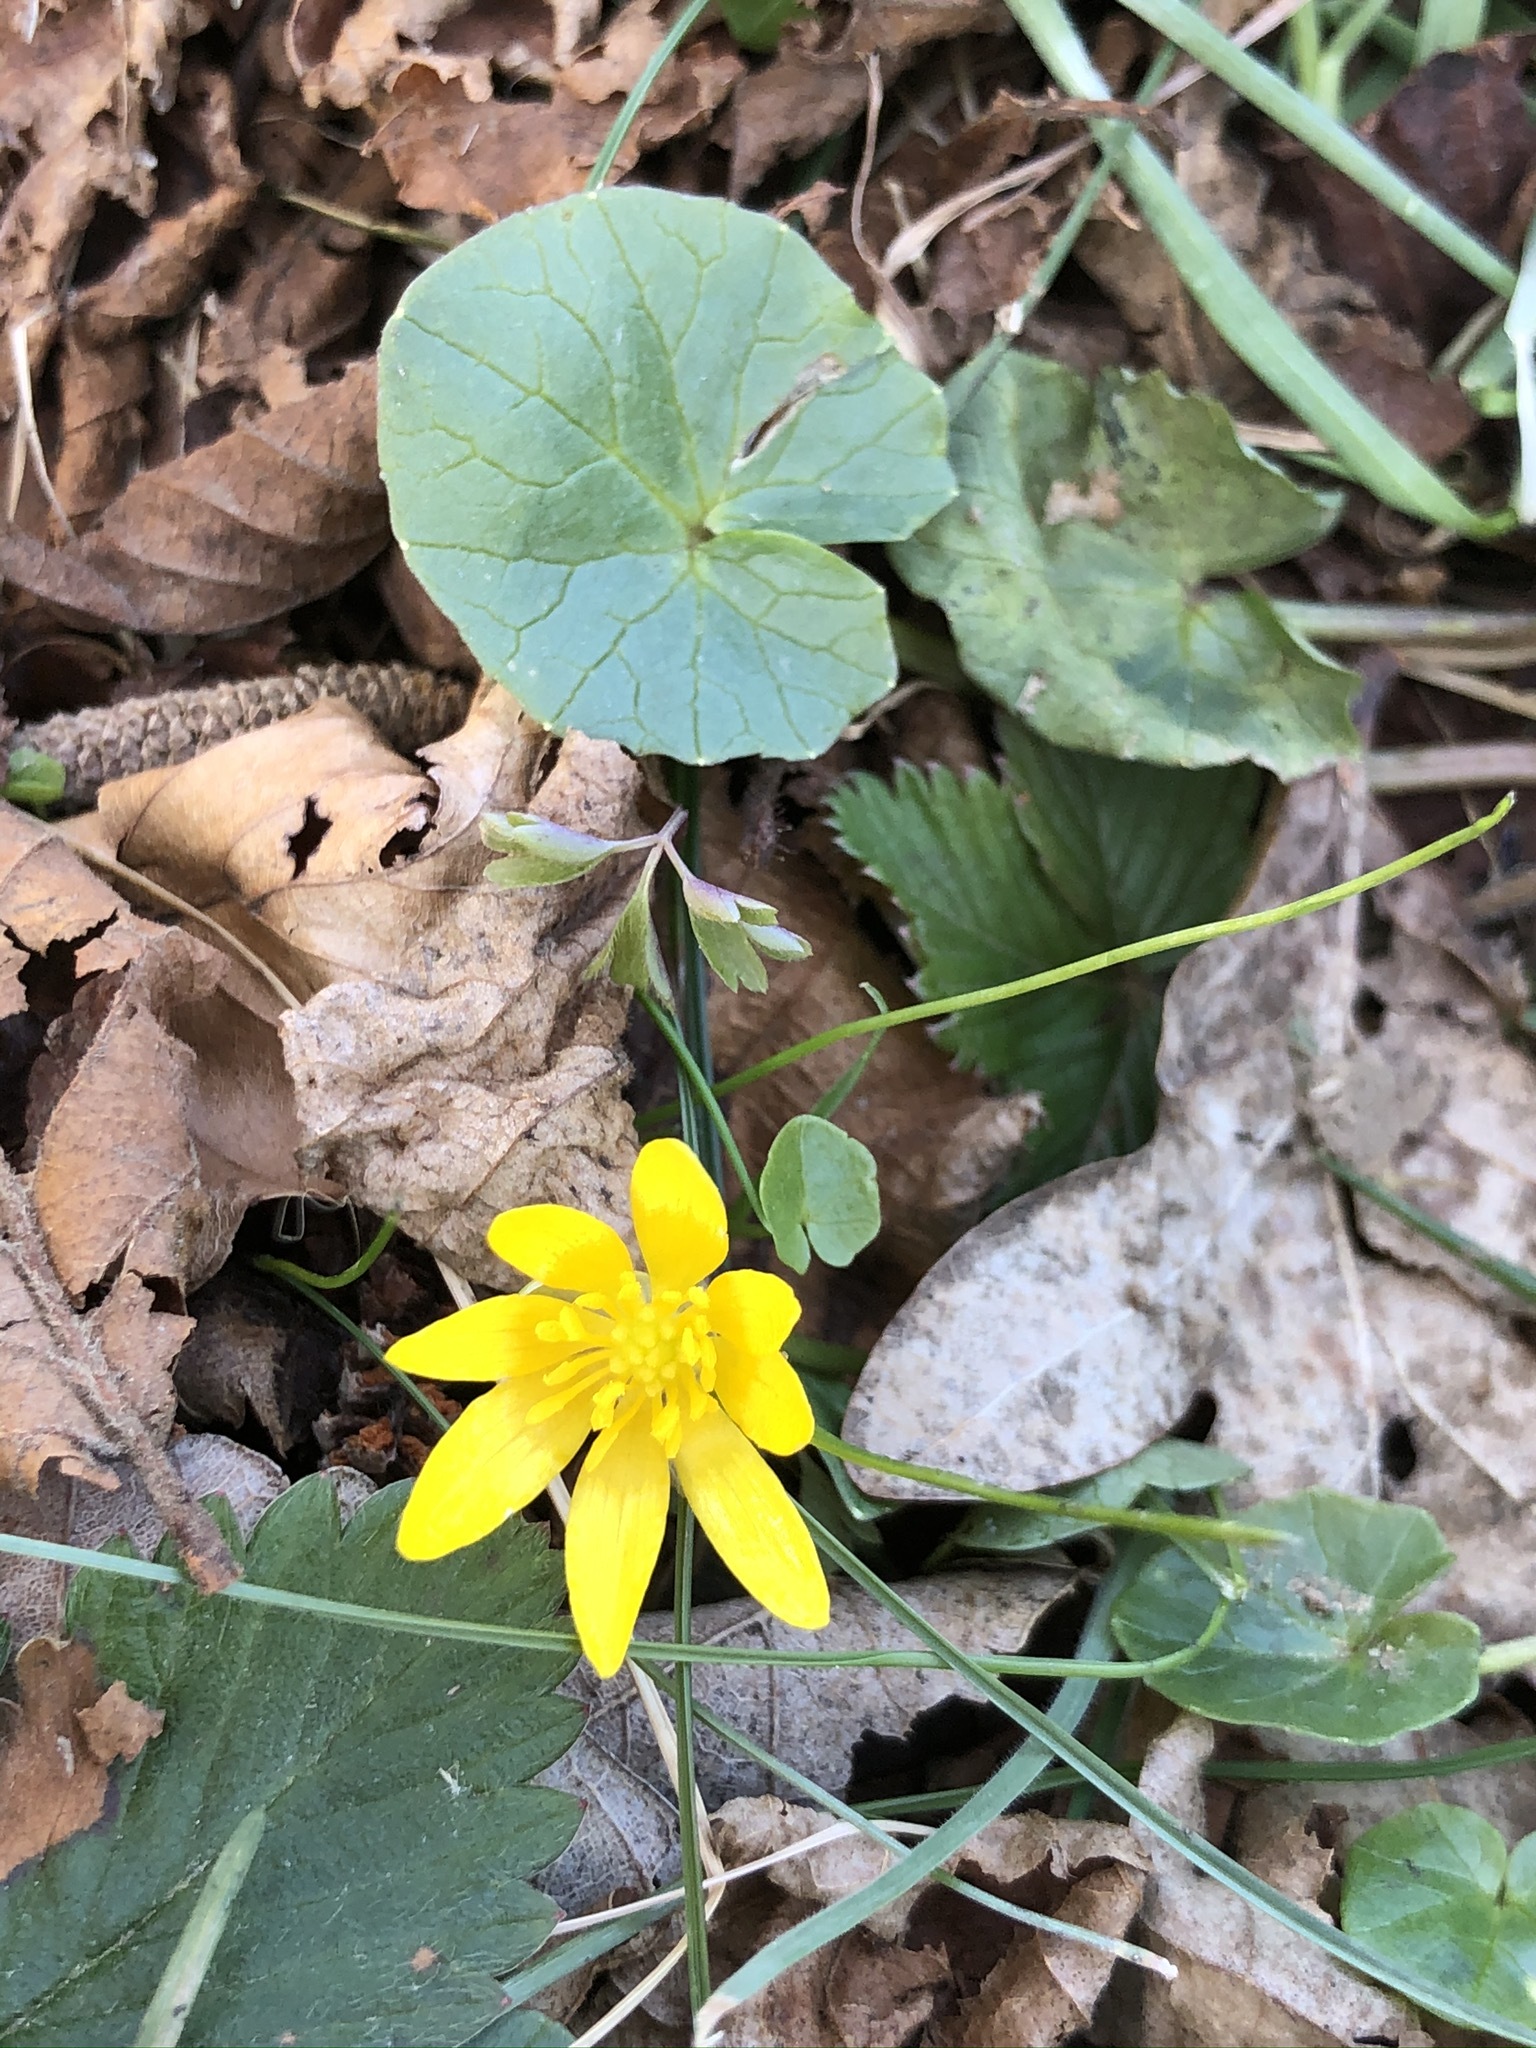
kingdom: Plantae
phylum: Tracheophyta
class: Magnoliopsida
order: Ranunculales
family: Ranunculaceae
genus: Ficaria
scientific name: Ficaria verna
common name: Lesser celandine
